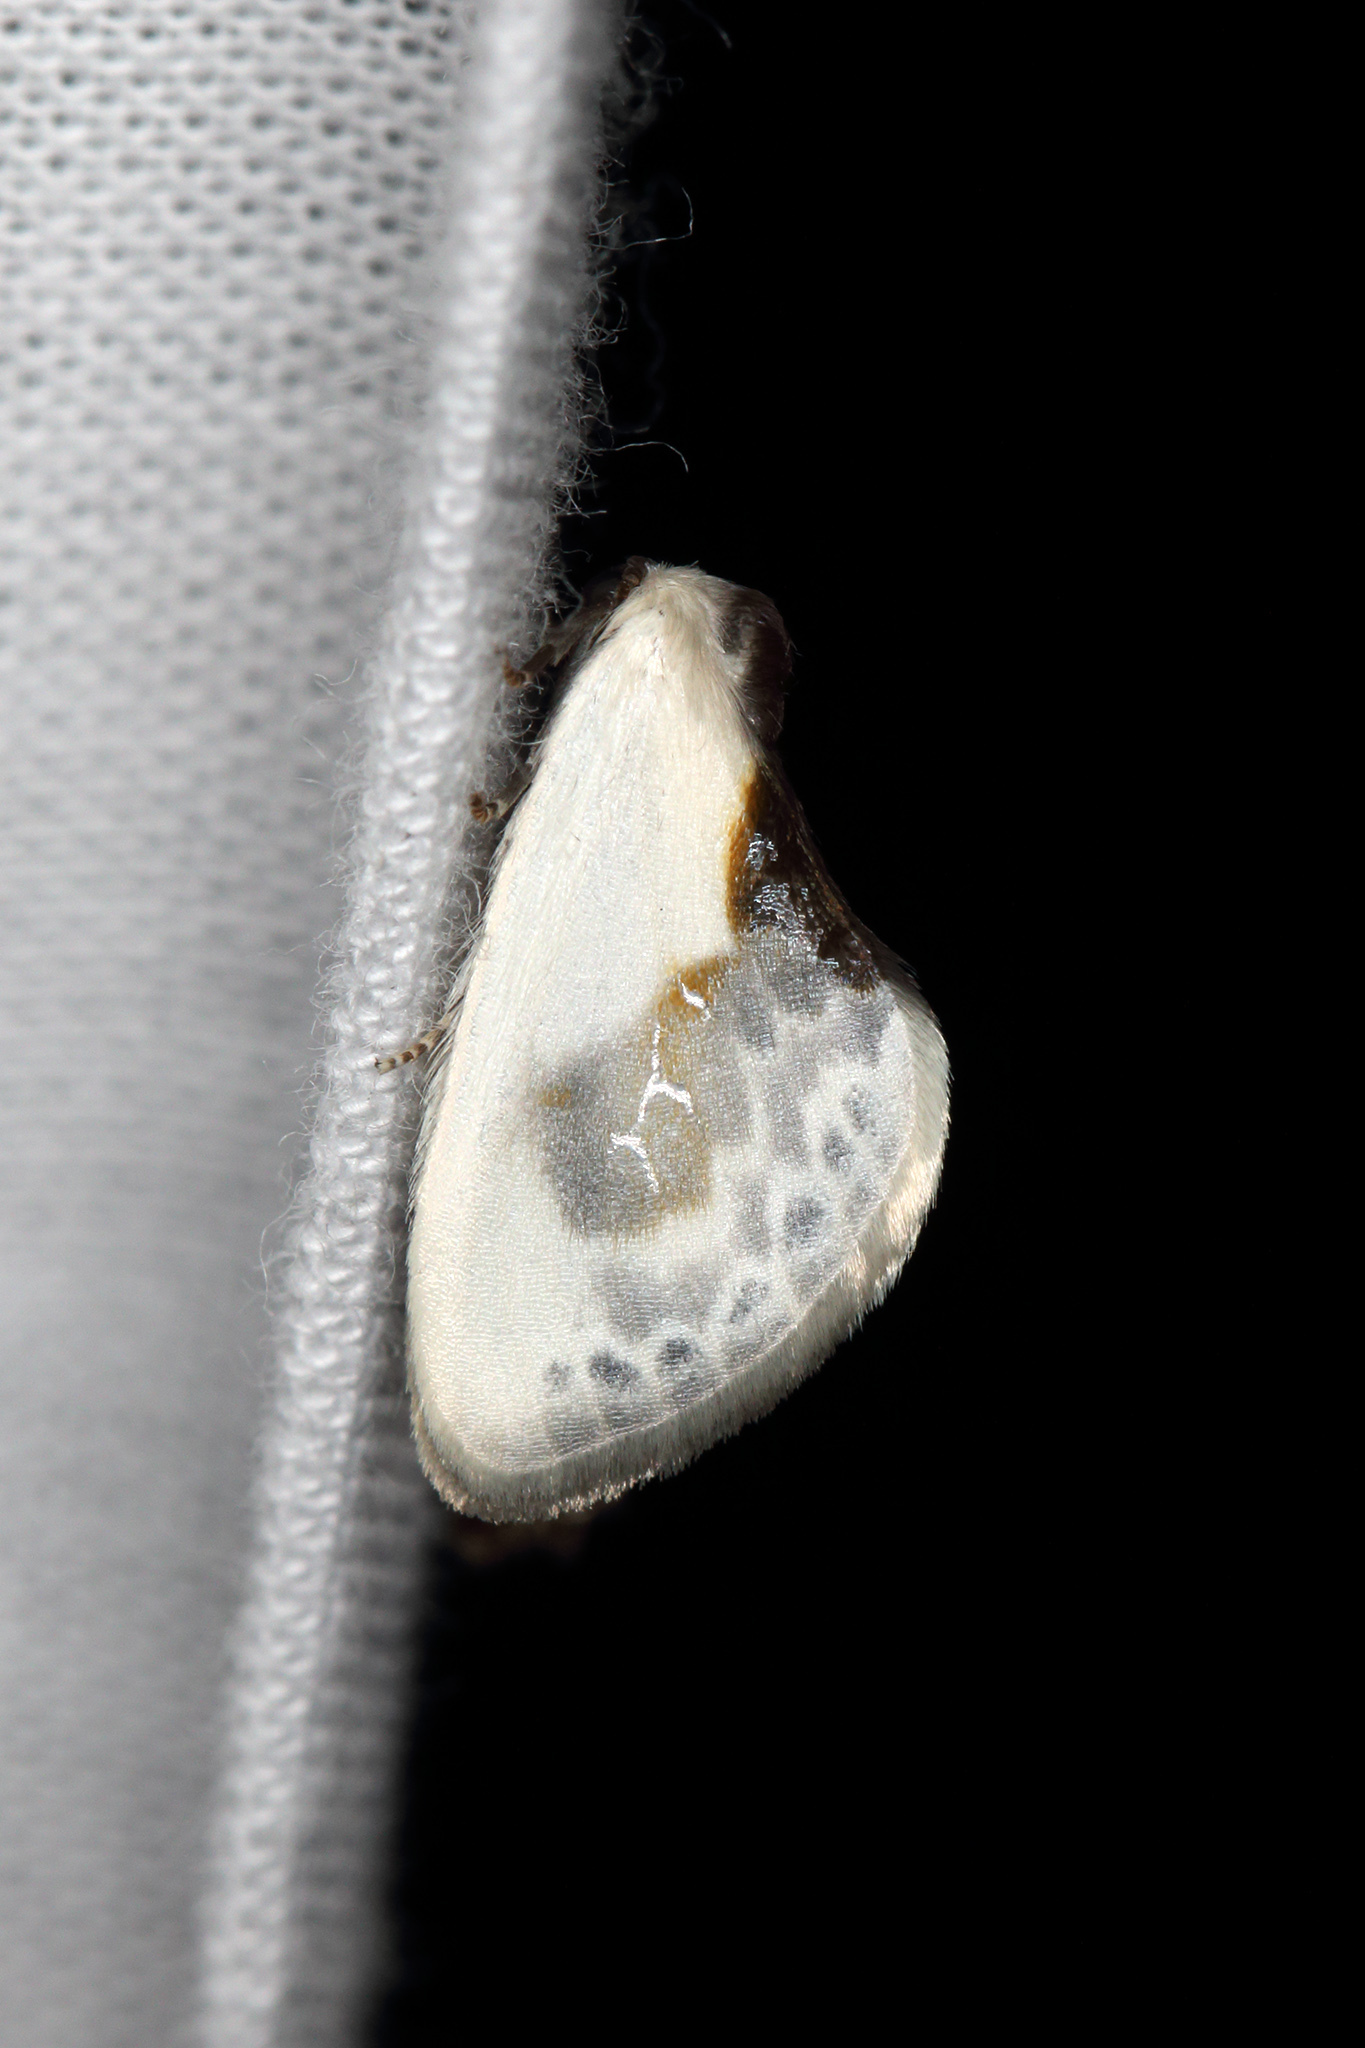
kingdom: Animalia
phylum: Arthropoda
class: Insecta
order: Lepidoptera
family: Drepanidae
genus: Cilix
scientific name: Cilix glaucata
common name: Chinese character
